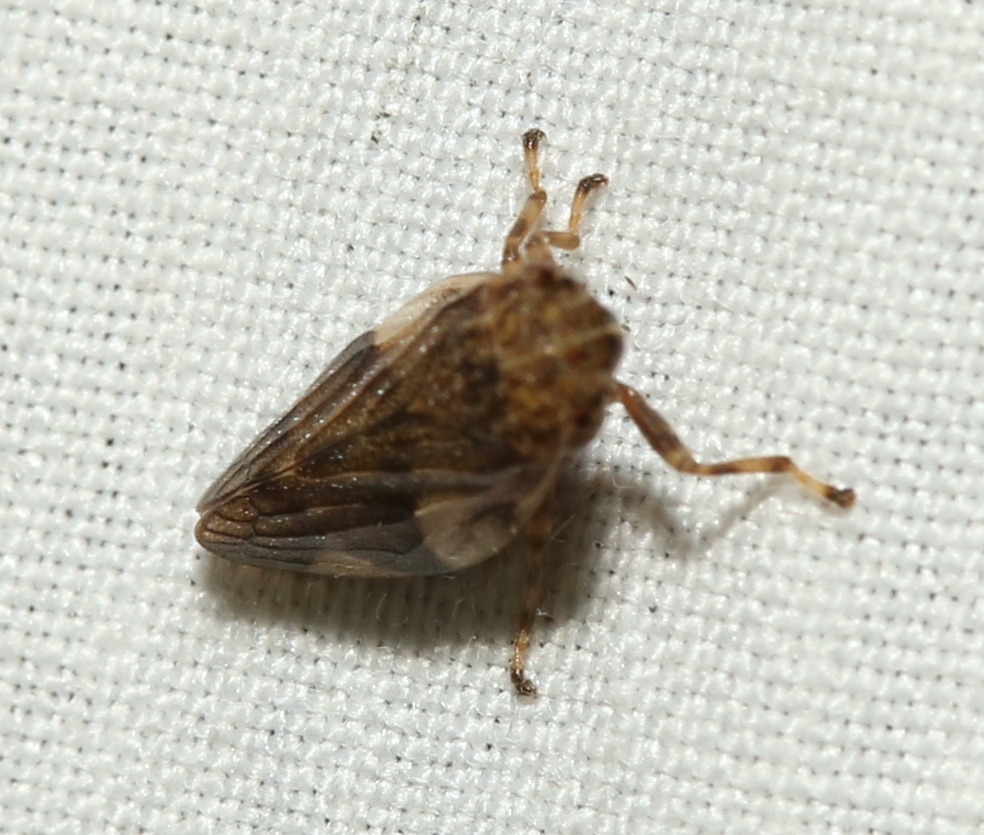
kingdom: Animalia
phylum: Arthropoda
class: Insecta
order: Hemiptera
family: Aphrophoridae
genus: Aphrophora
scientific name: Aphrophora quadrinotata
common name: Four-spotted spittlebug
